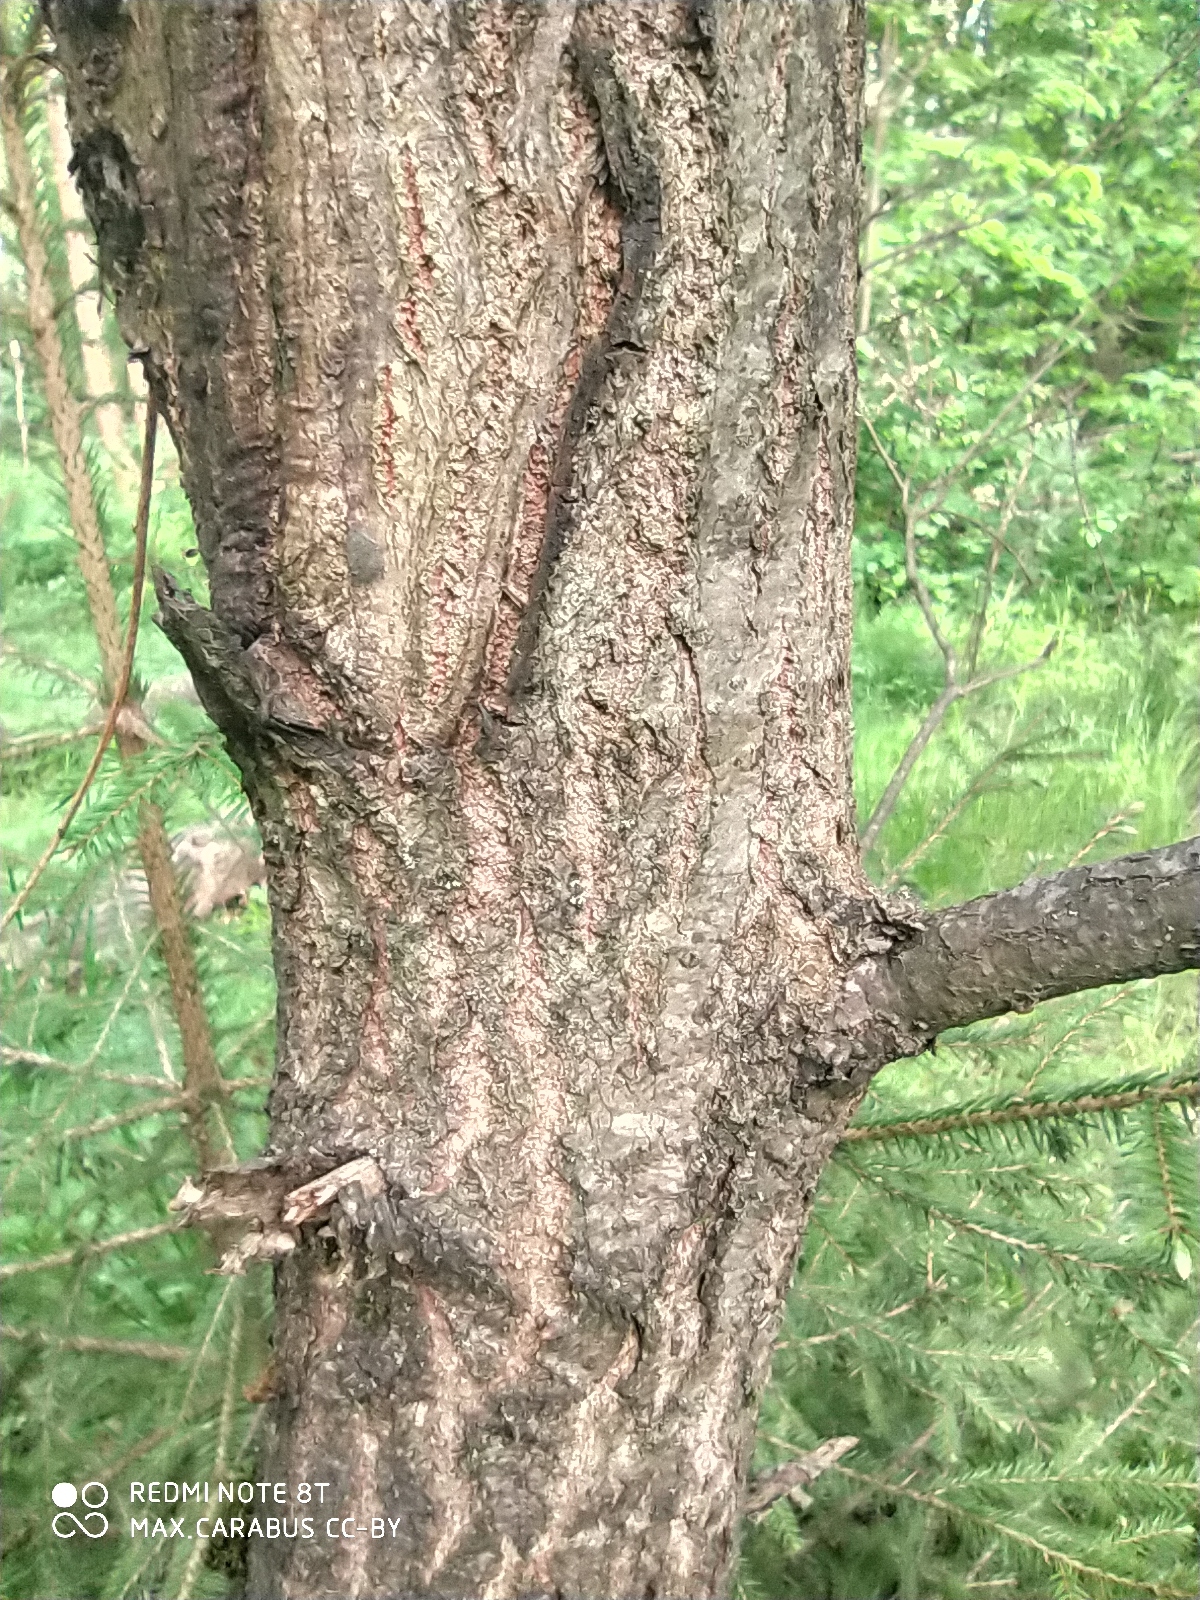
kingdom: Plantae
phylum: Tracheophyta
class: Magnoliopsida
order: Fagales
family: Fagaceae
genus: Quercus
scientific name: Quercus robur
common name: Pedunculate oak
